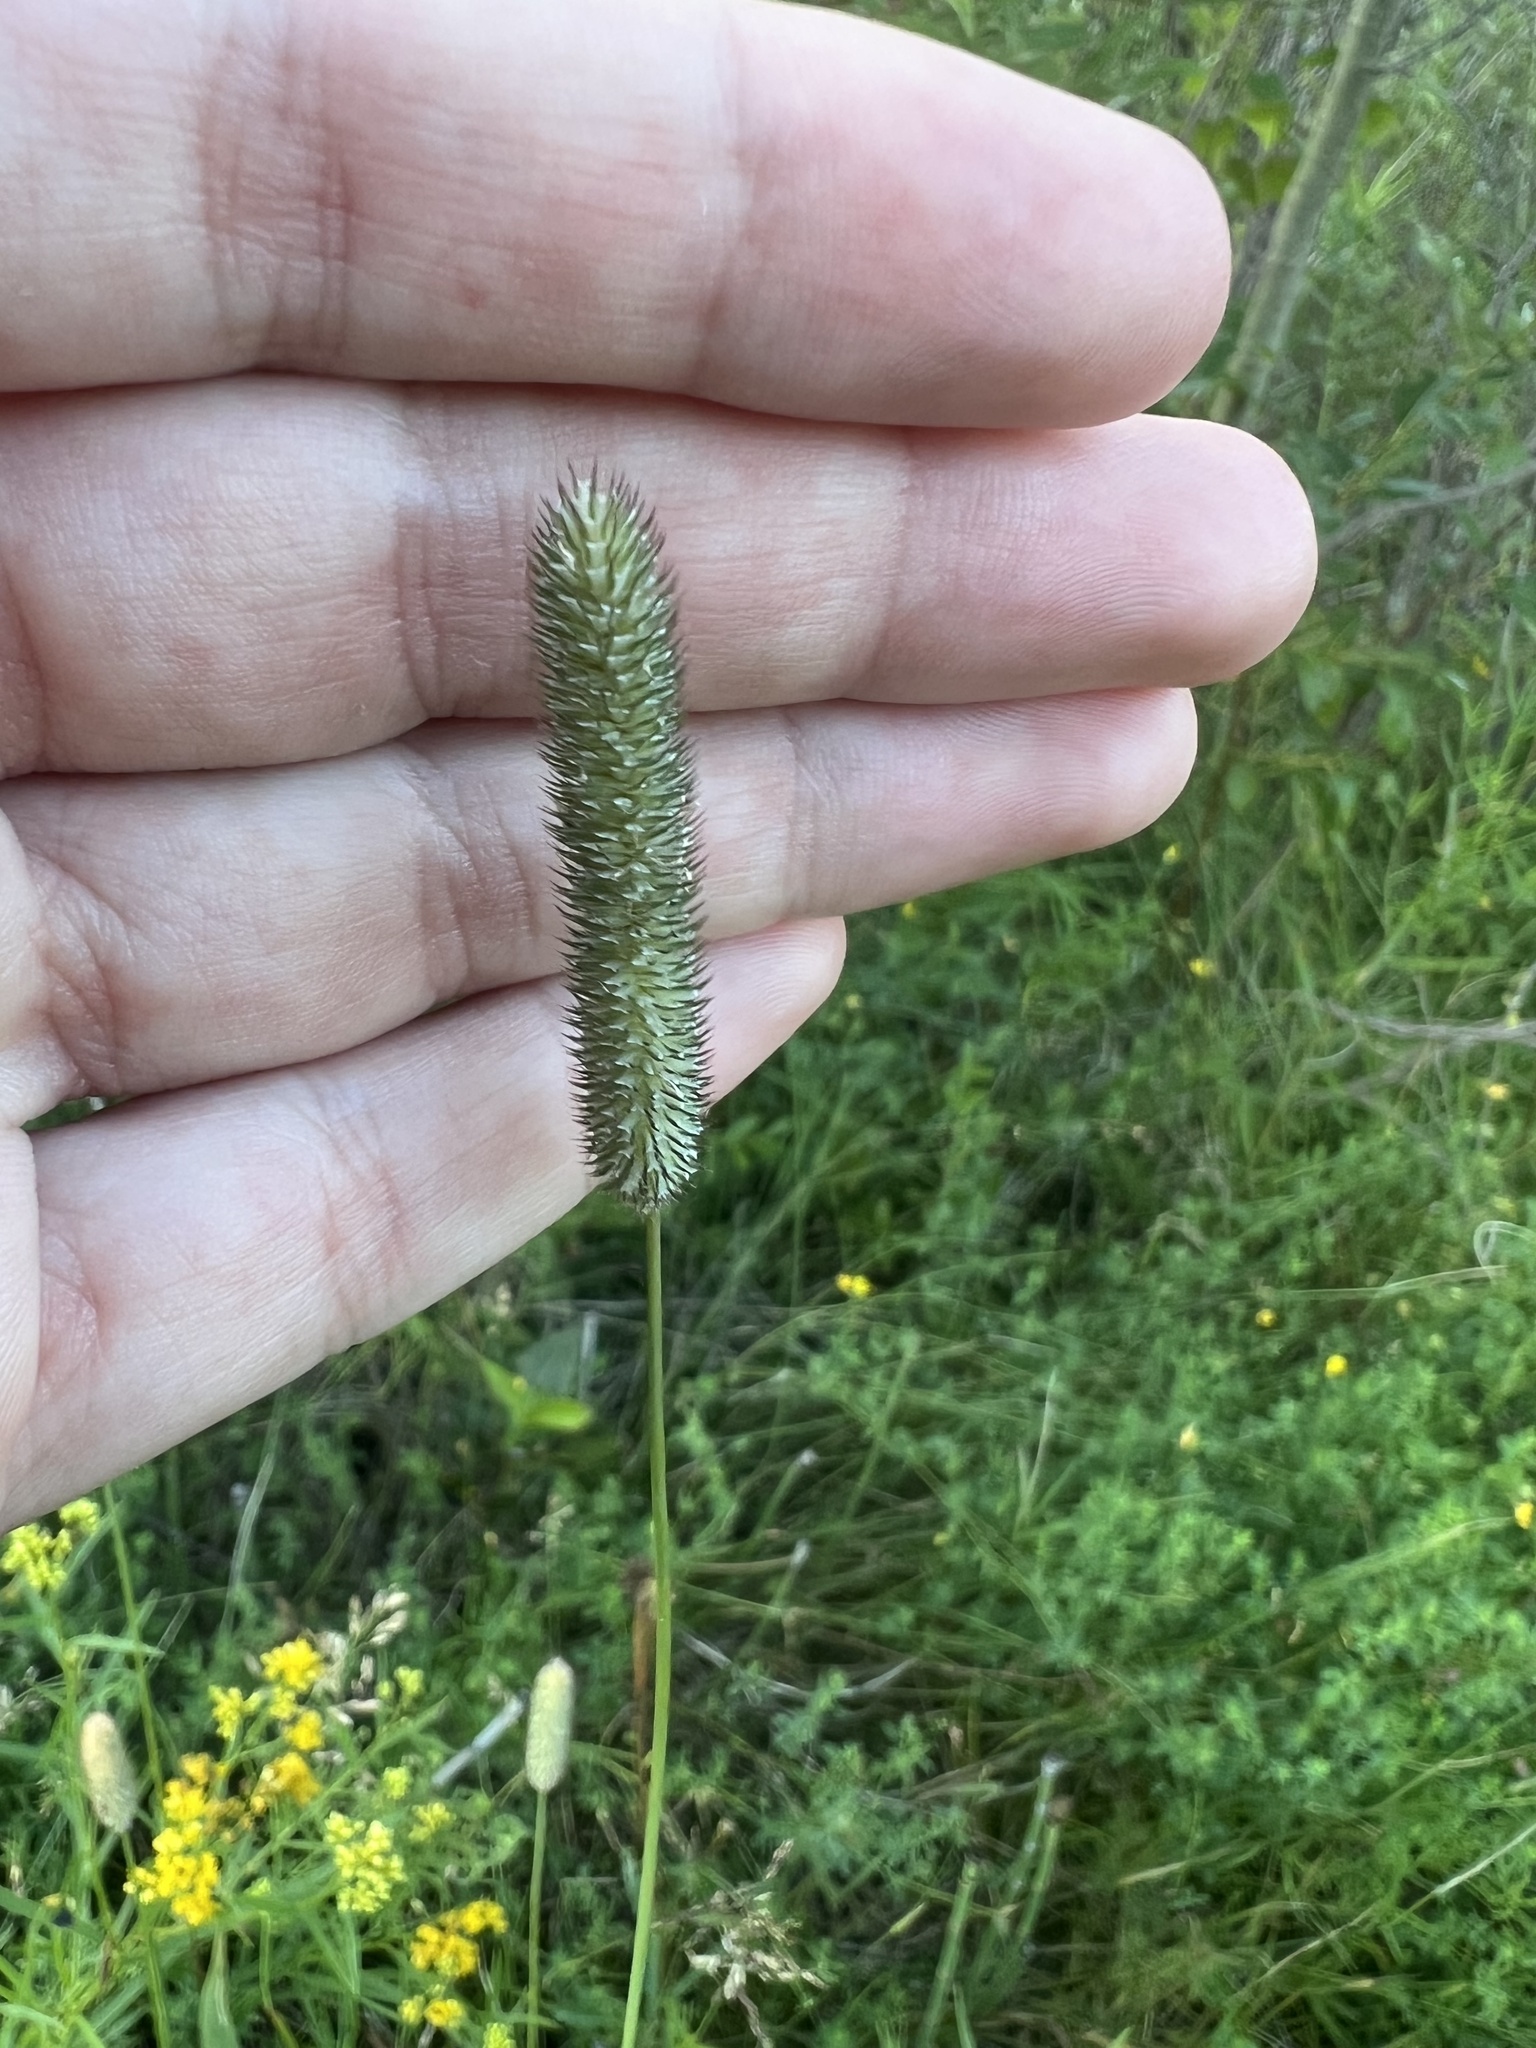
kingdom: Plantae
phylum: Tracheophyta
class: Liliopsida
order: Poales
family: Poaceae
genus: Phleum
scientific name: Phleum pratense
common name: Timothy grass
